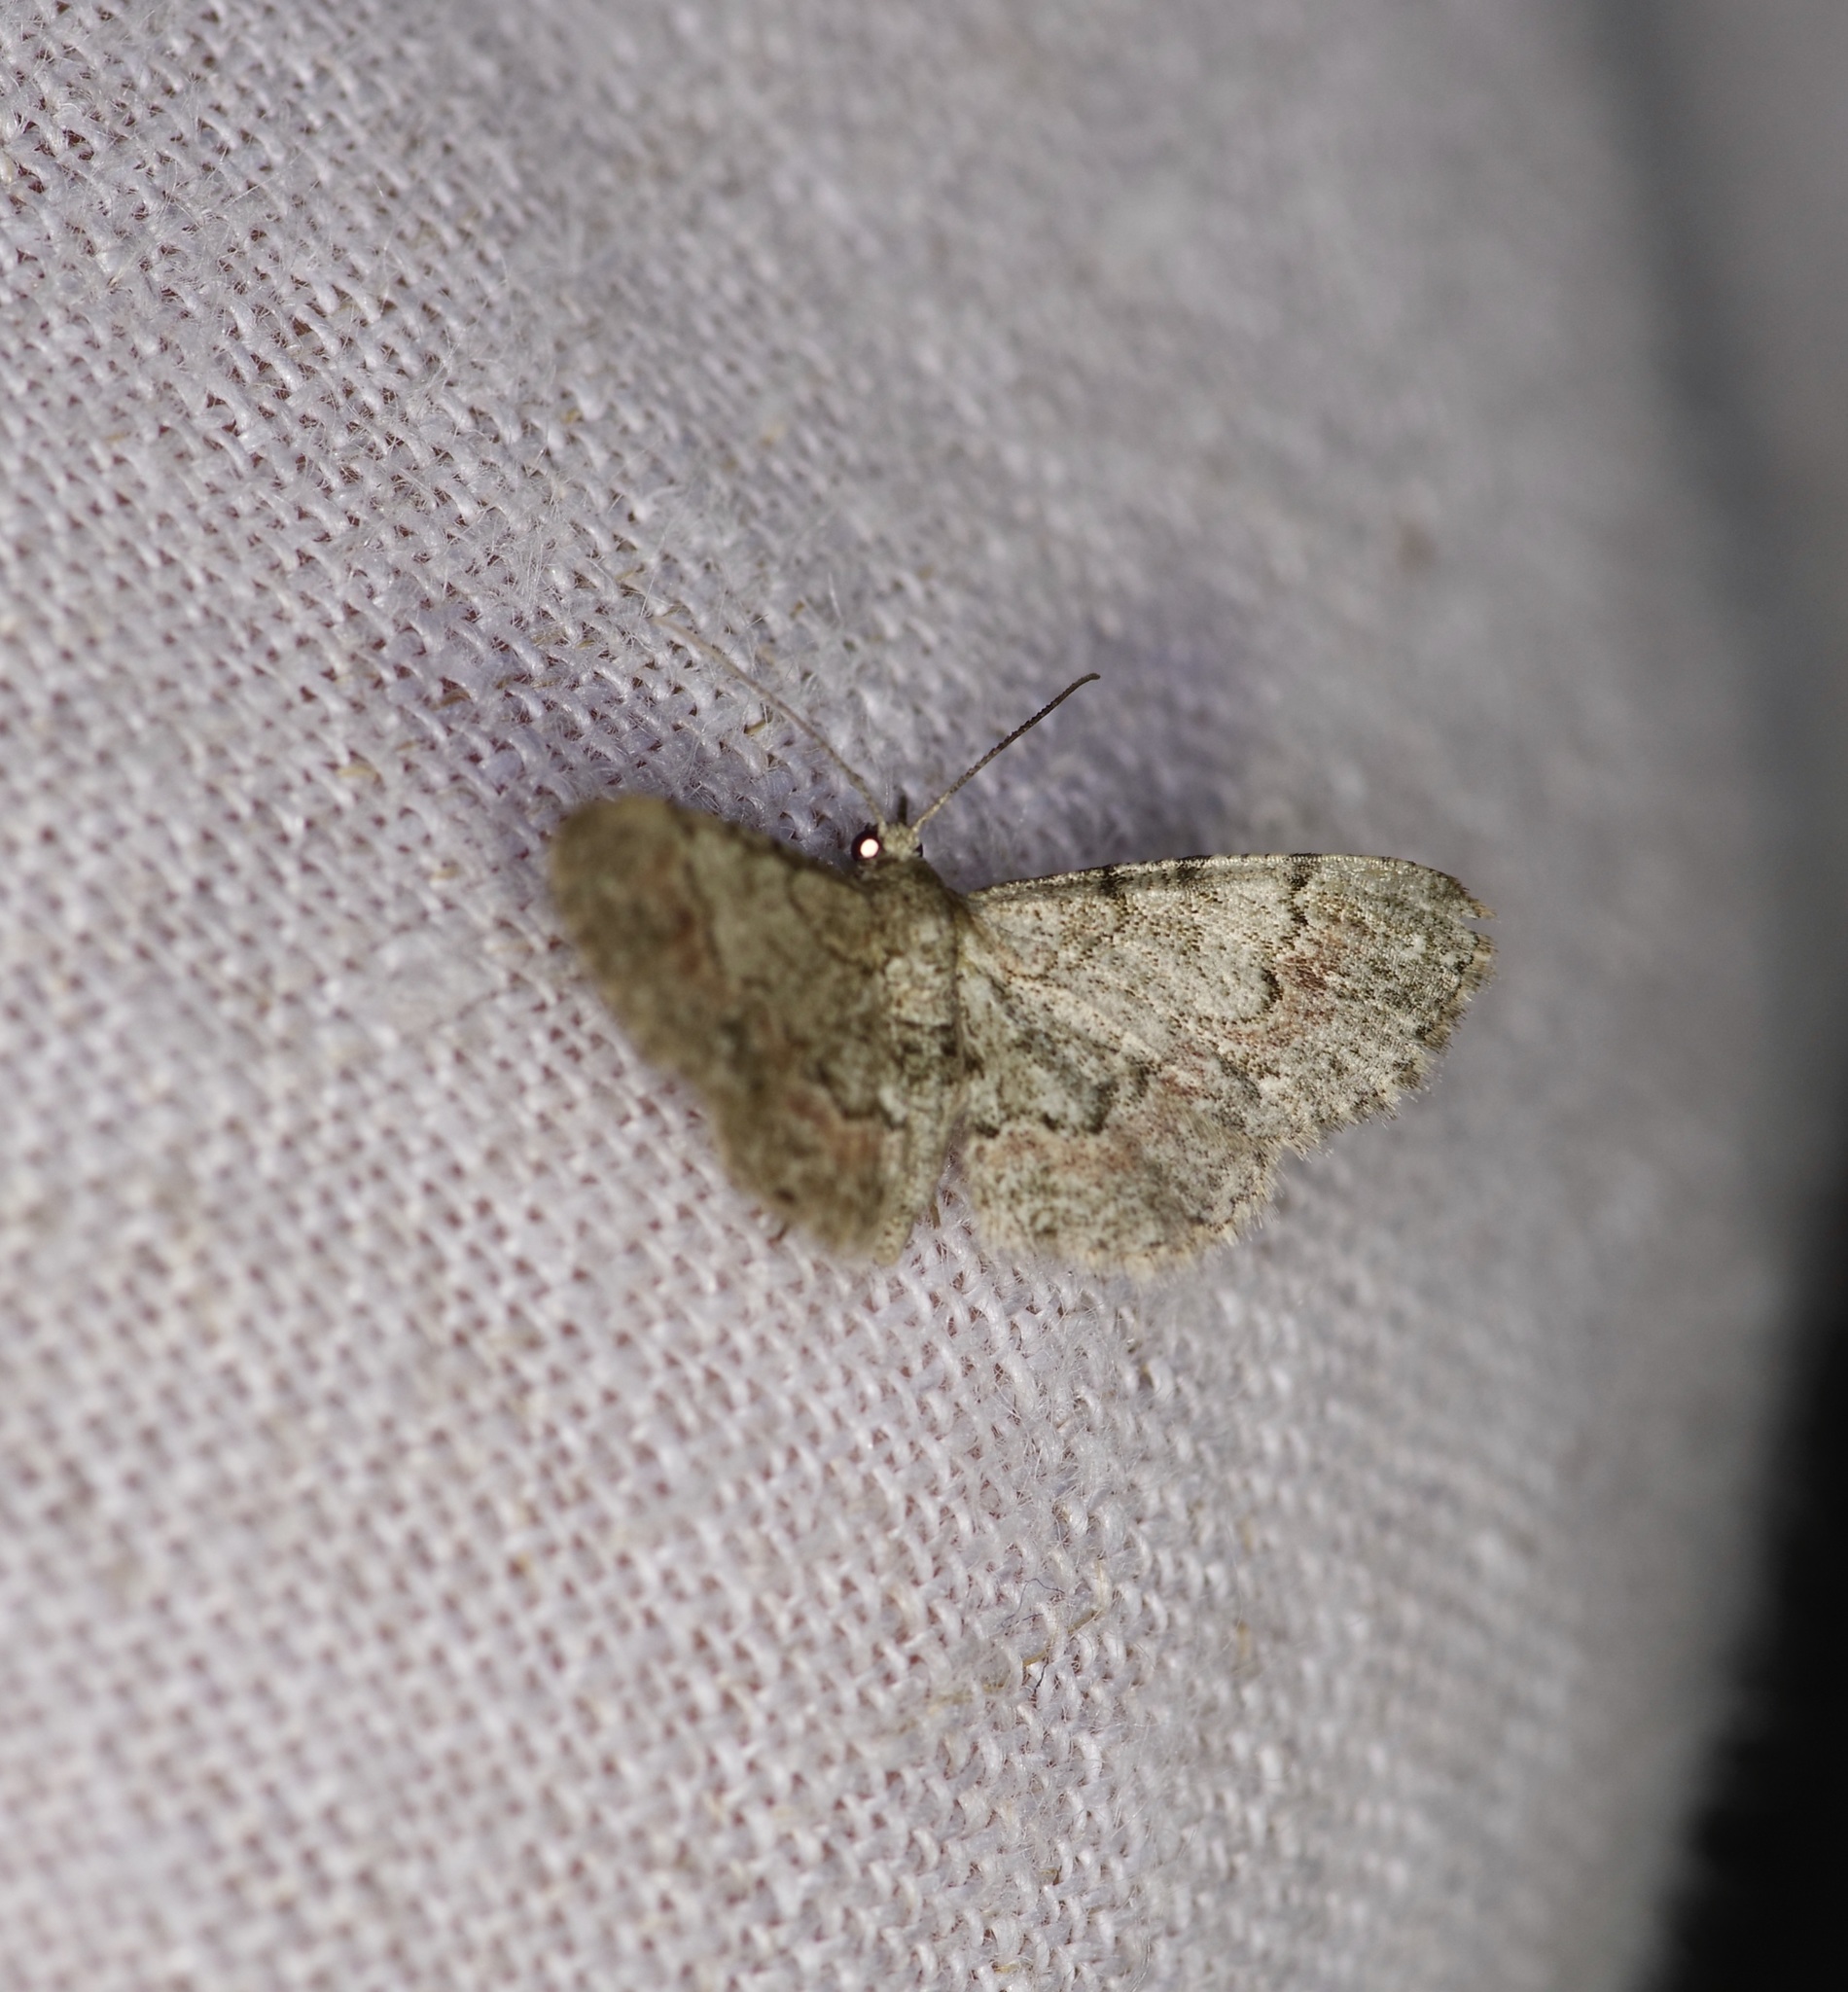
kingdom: Animalia
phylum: Arthropoda
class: Insecta
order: Lepidoptera
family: Geometridae
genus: Glenoides
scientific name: Glenoides texanaria
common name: Texas gray
